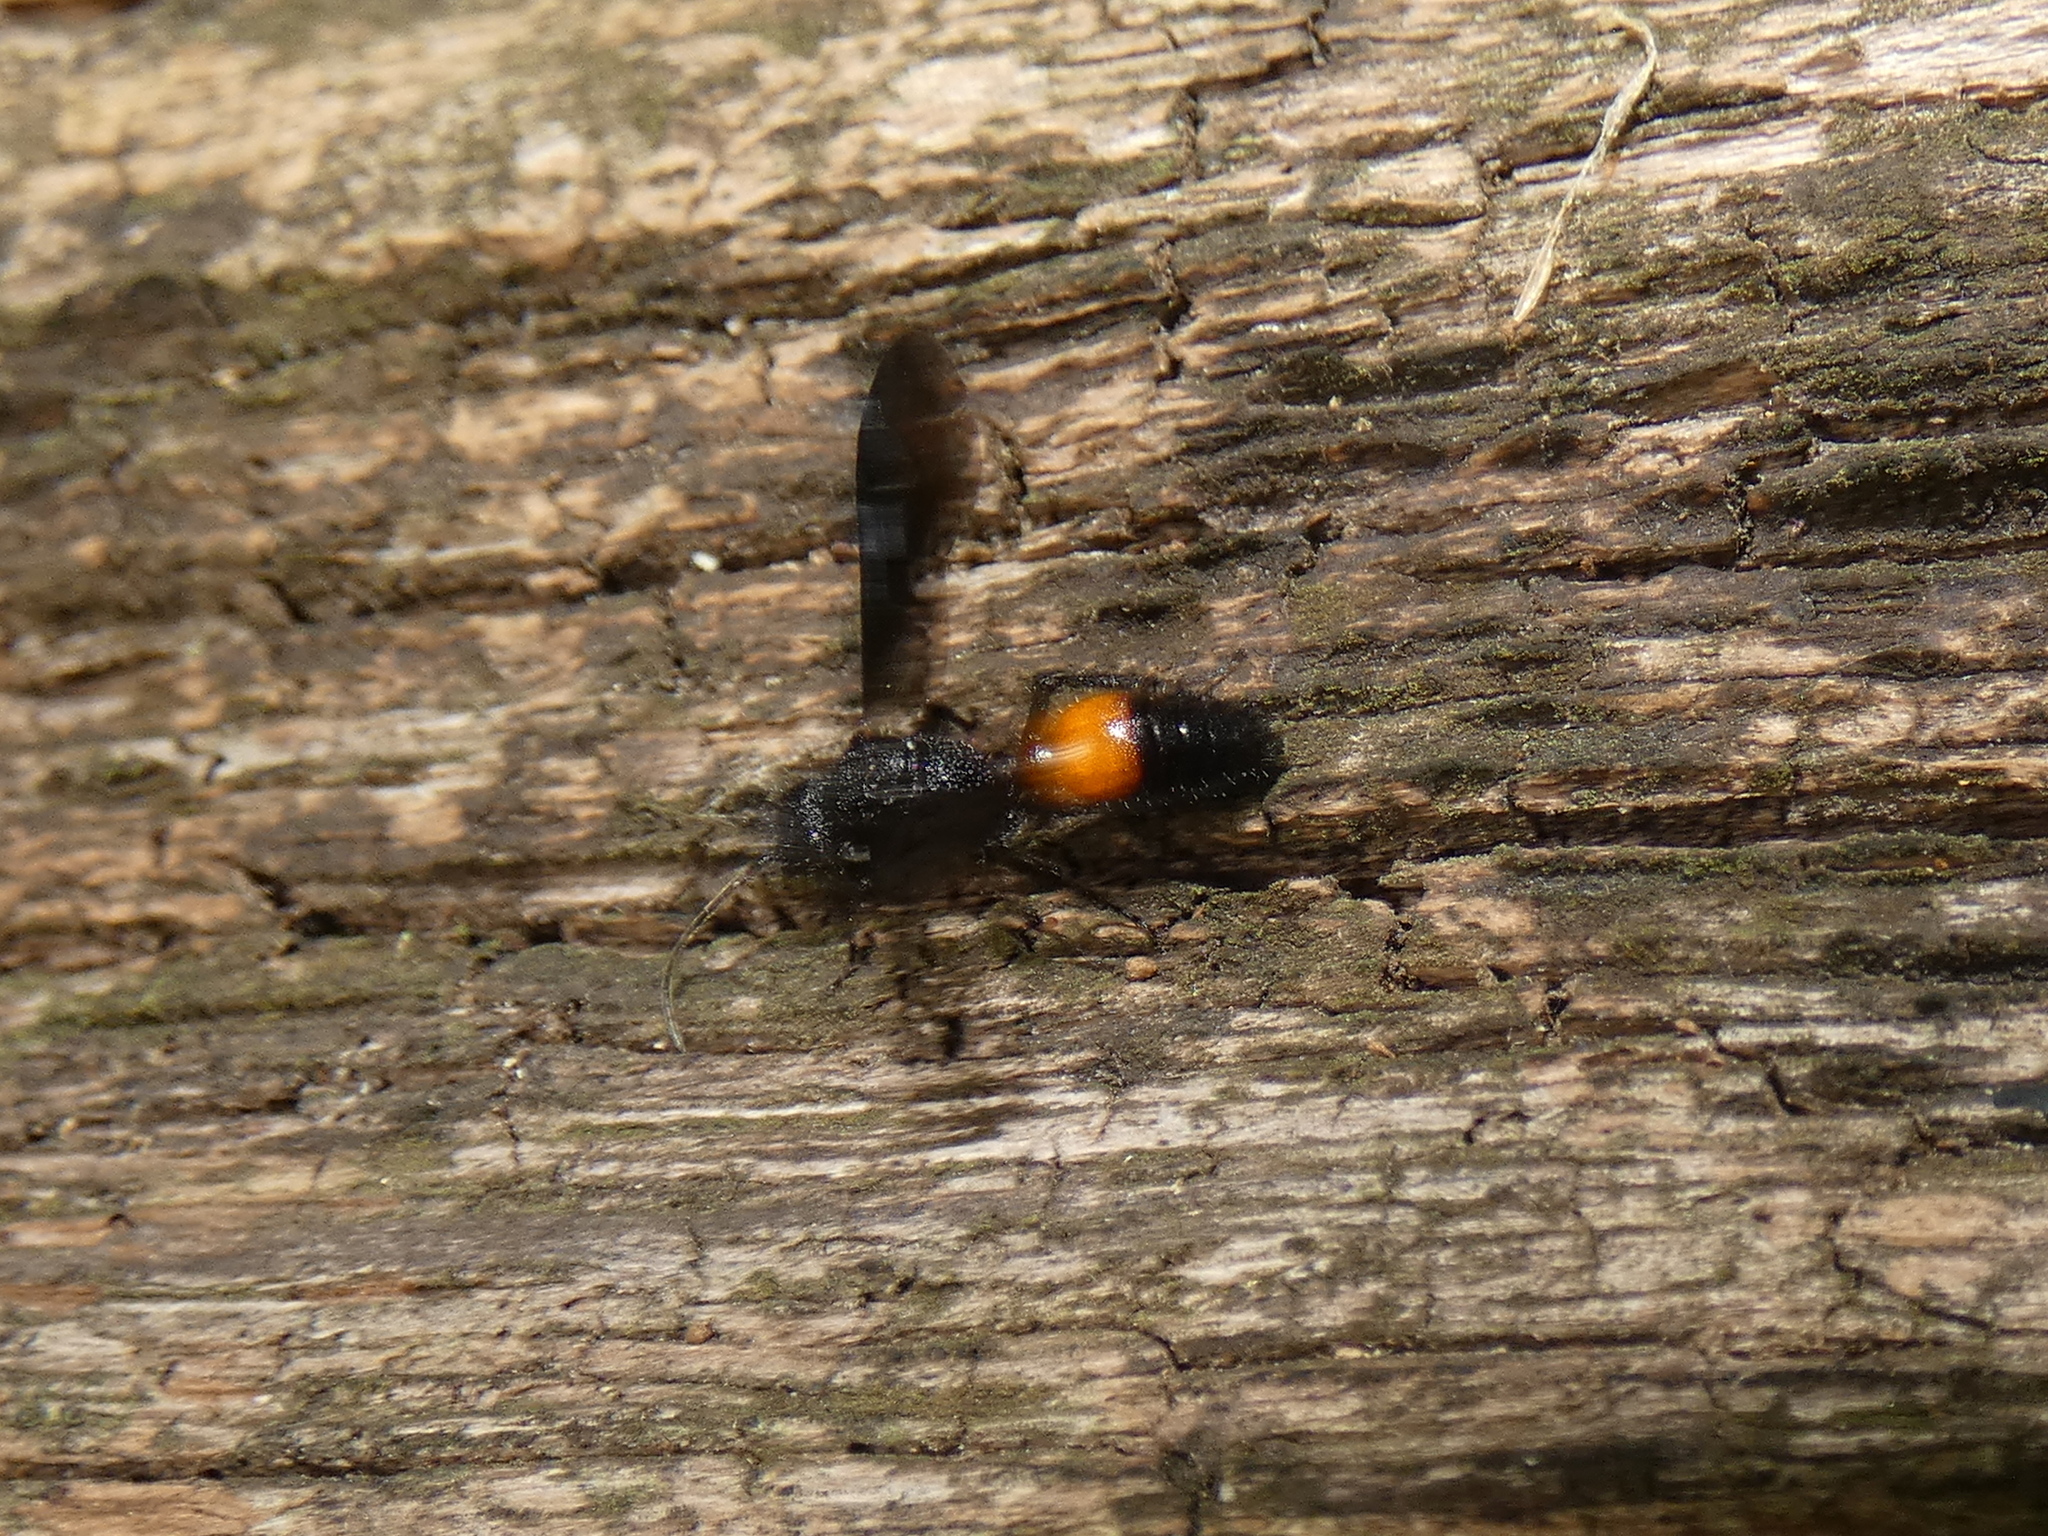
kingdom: Animalia
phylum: Arthropoda
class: Insecta
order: Hymenoptera
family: Mutillidae
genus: Sphaeropthalma
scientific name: Sphaeropthalma
